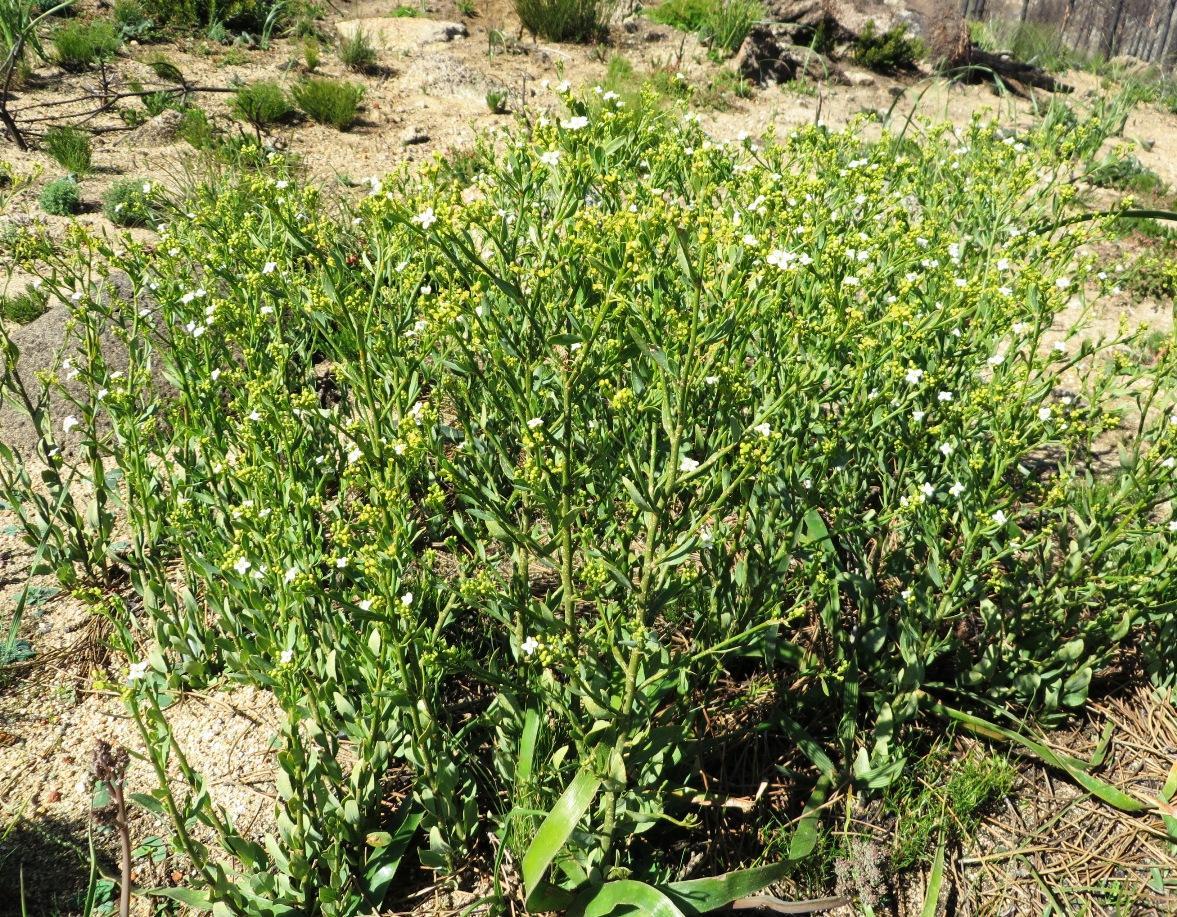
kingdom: Plantae
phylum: Tracheophyta
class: Magnoliopsida
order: Solanales
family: Montiniaceae
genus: Montinia
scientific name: Montinia caryophyllacea
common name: Wild clove-bush
